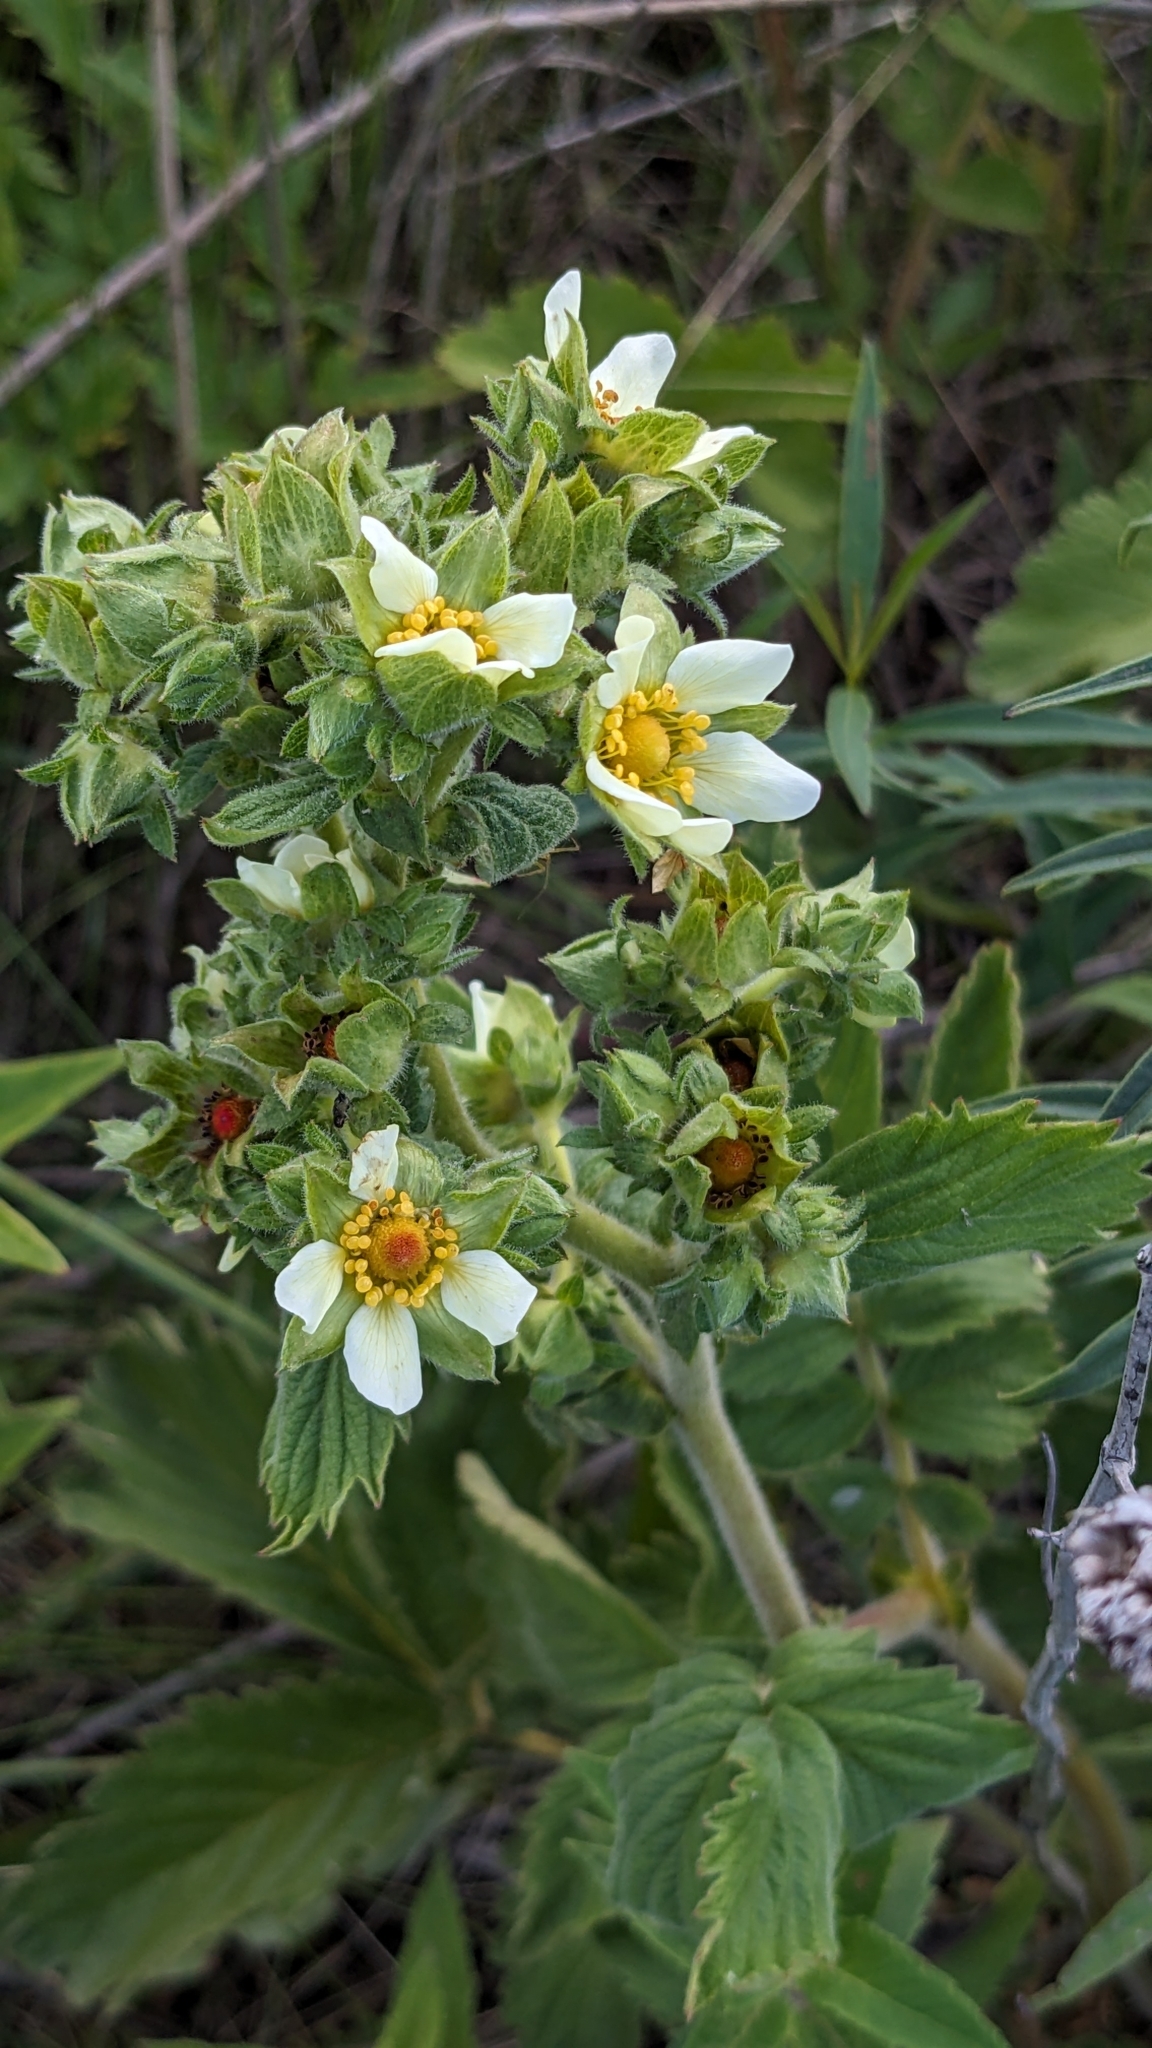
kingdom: Plantae
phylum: Tracheophyta
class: Magnoliopsida
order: Rosales
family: Rosaceae
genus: Drymocallis
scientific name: Drymocallis arguta
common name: Tall cinquefoil
